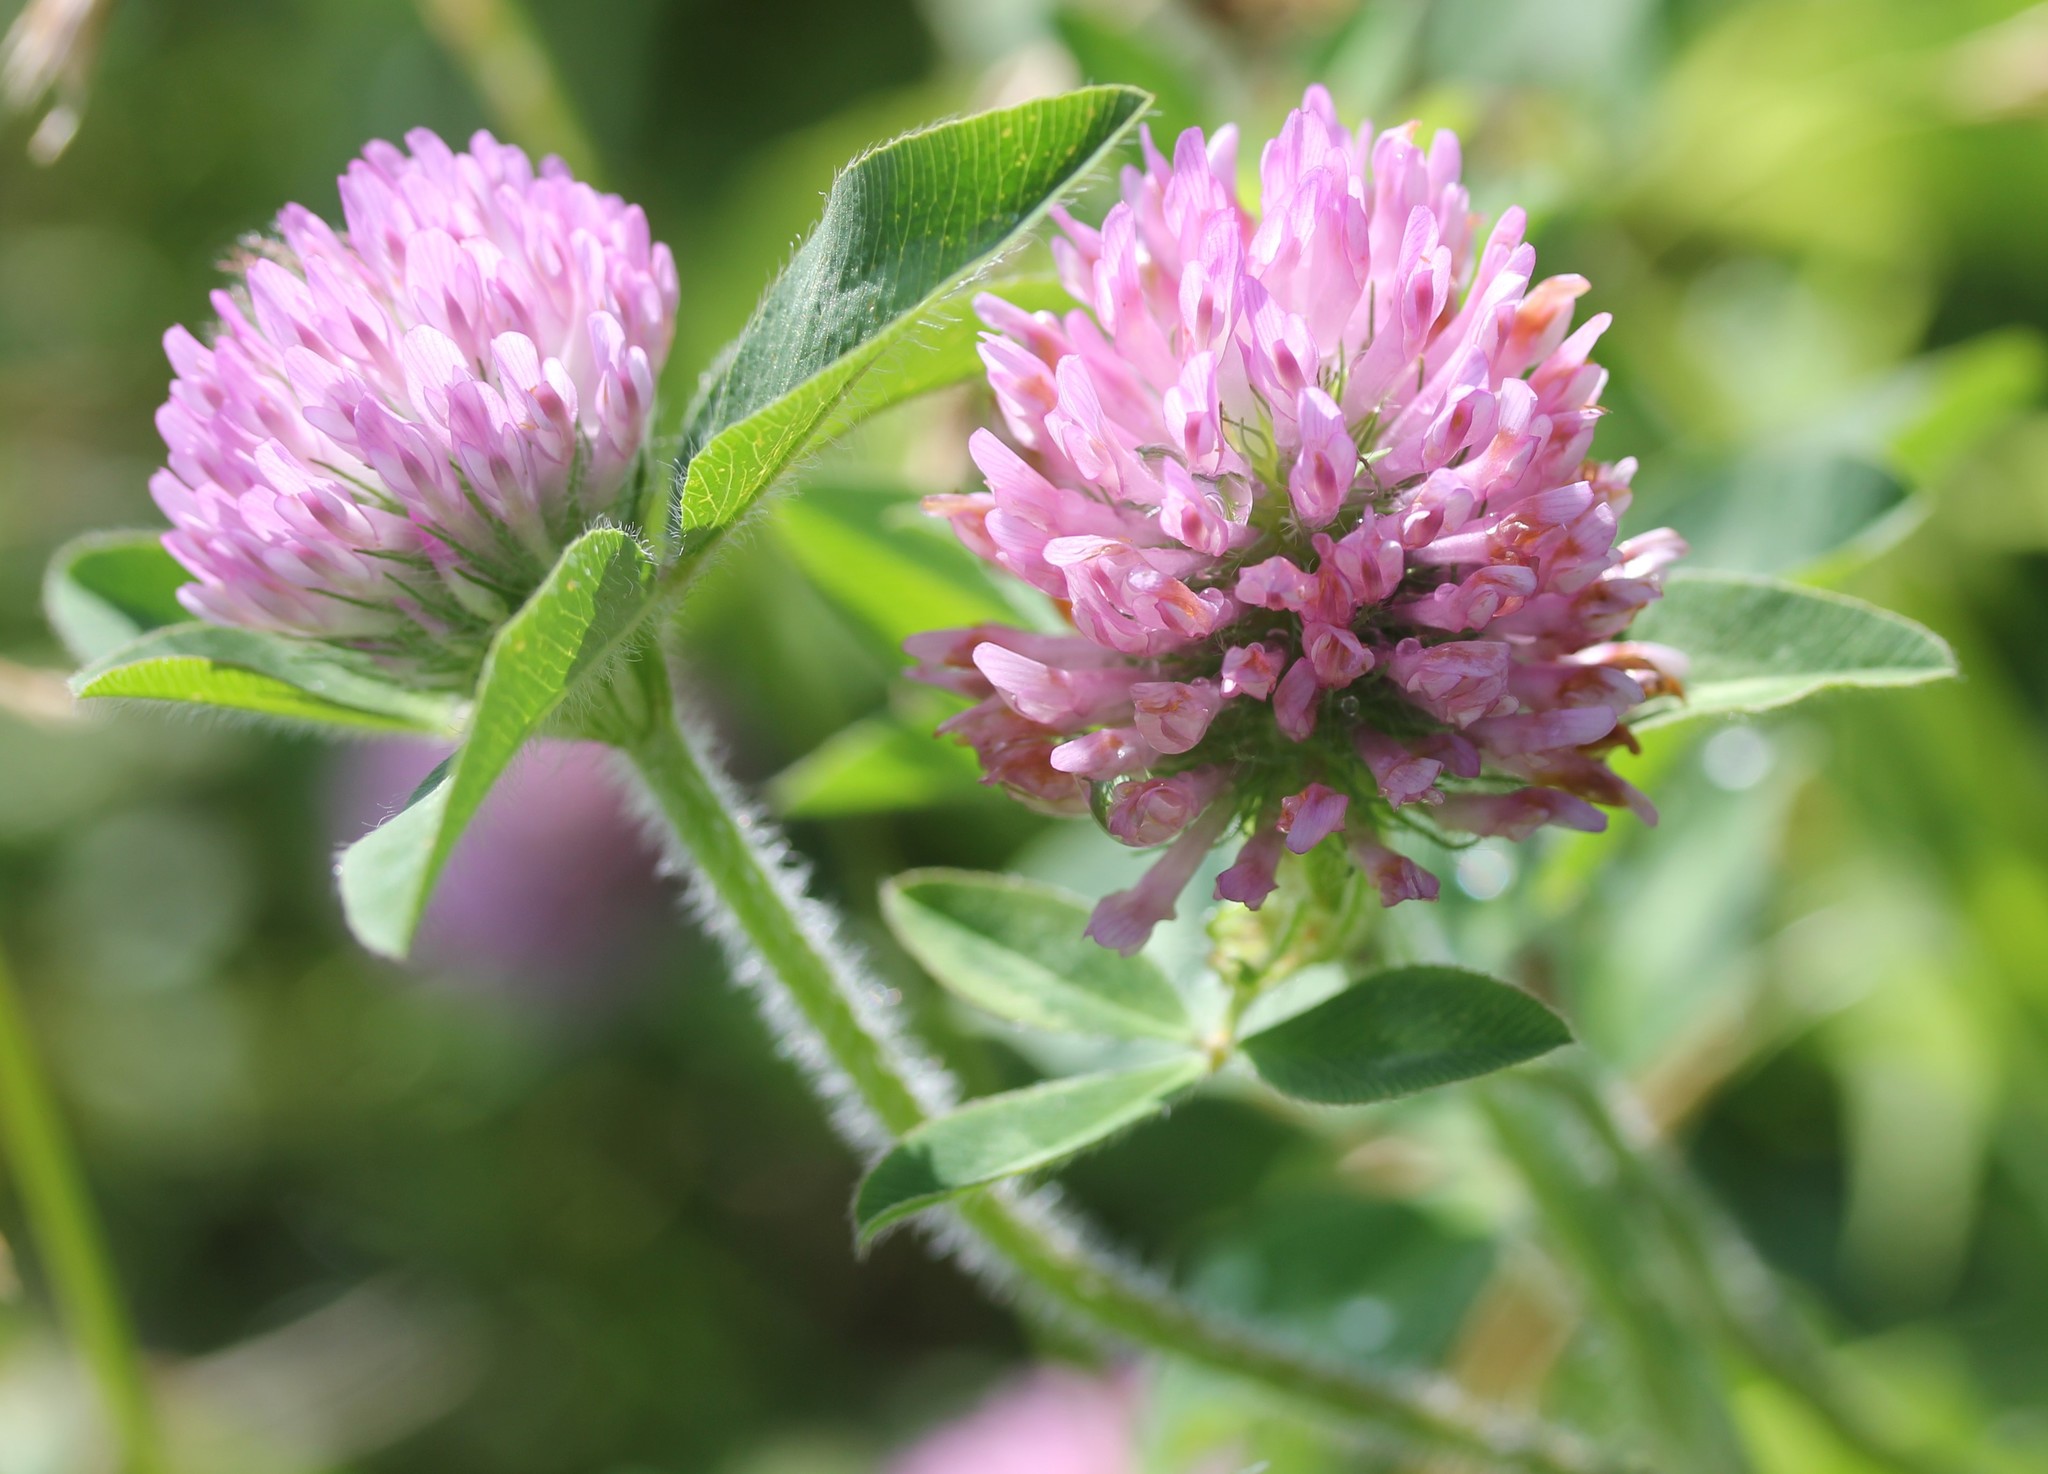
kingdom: Plantae
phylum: Tracheophyta
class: Magnoliopsida
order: Fabales
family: Fabaceae
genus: Trifolium
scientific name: Trifolium pratense
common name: Red clover
